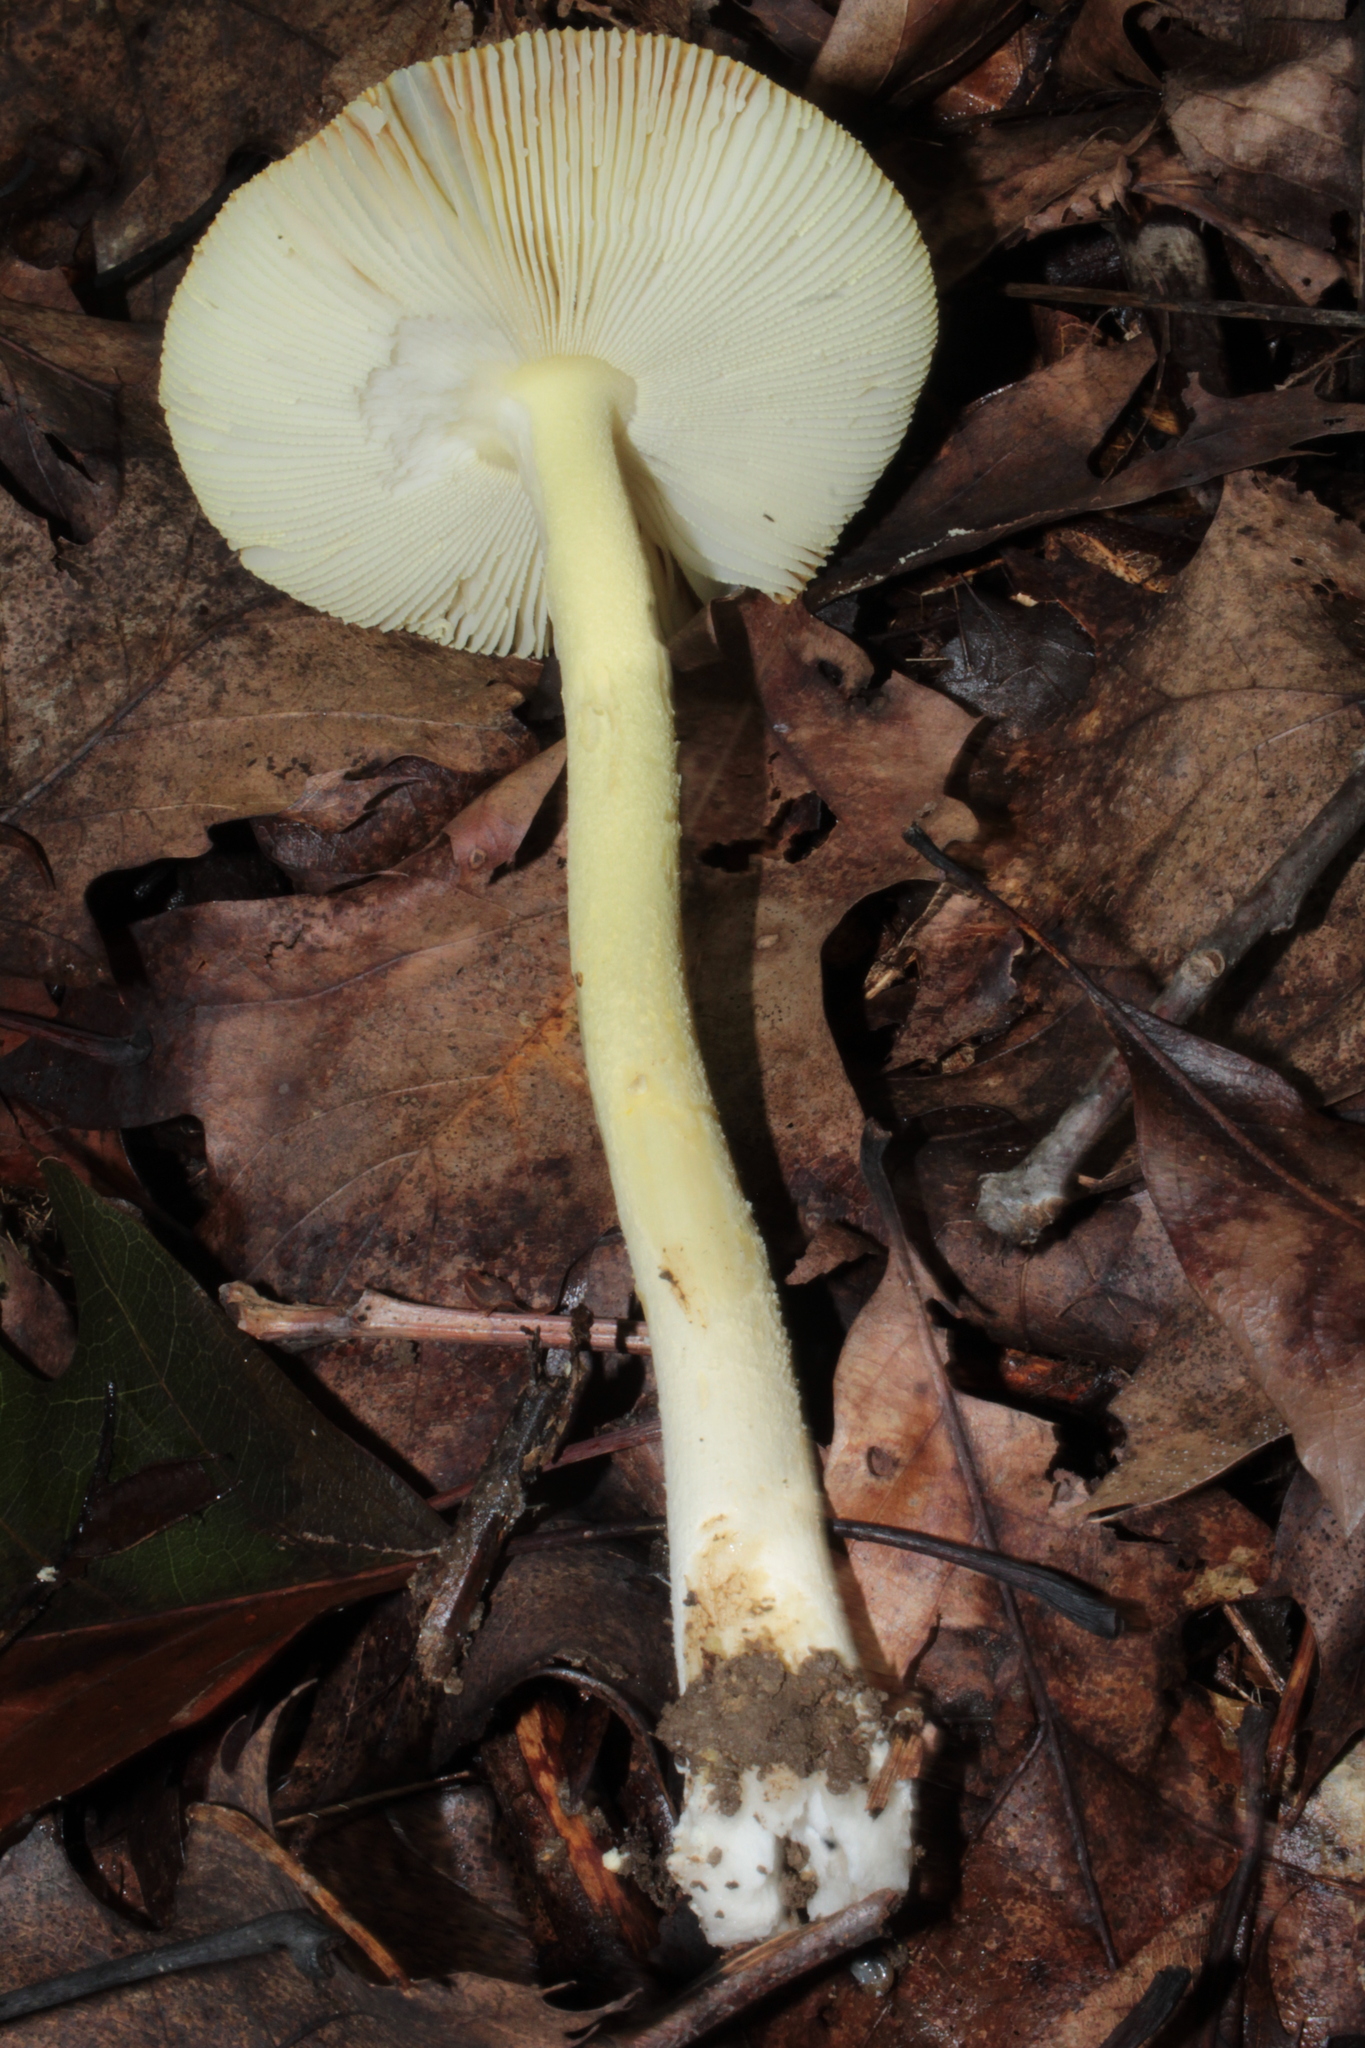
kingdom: Fungi
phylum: Basidiomycota
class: Agaricomycetes
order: Agaricales
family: Amanitaceae
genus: Amanita
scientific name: Amanita parcivolvata
